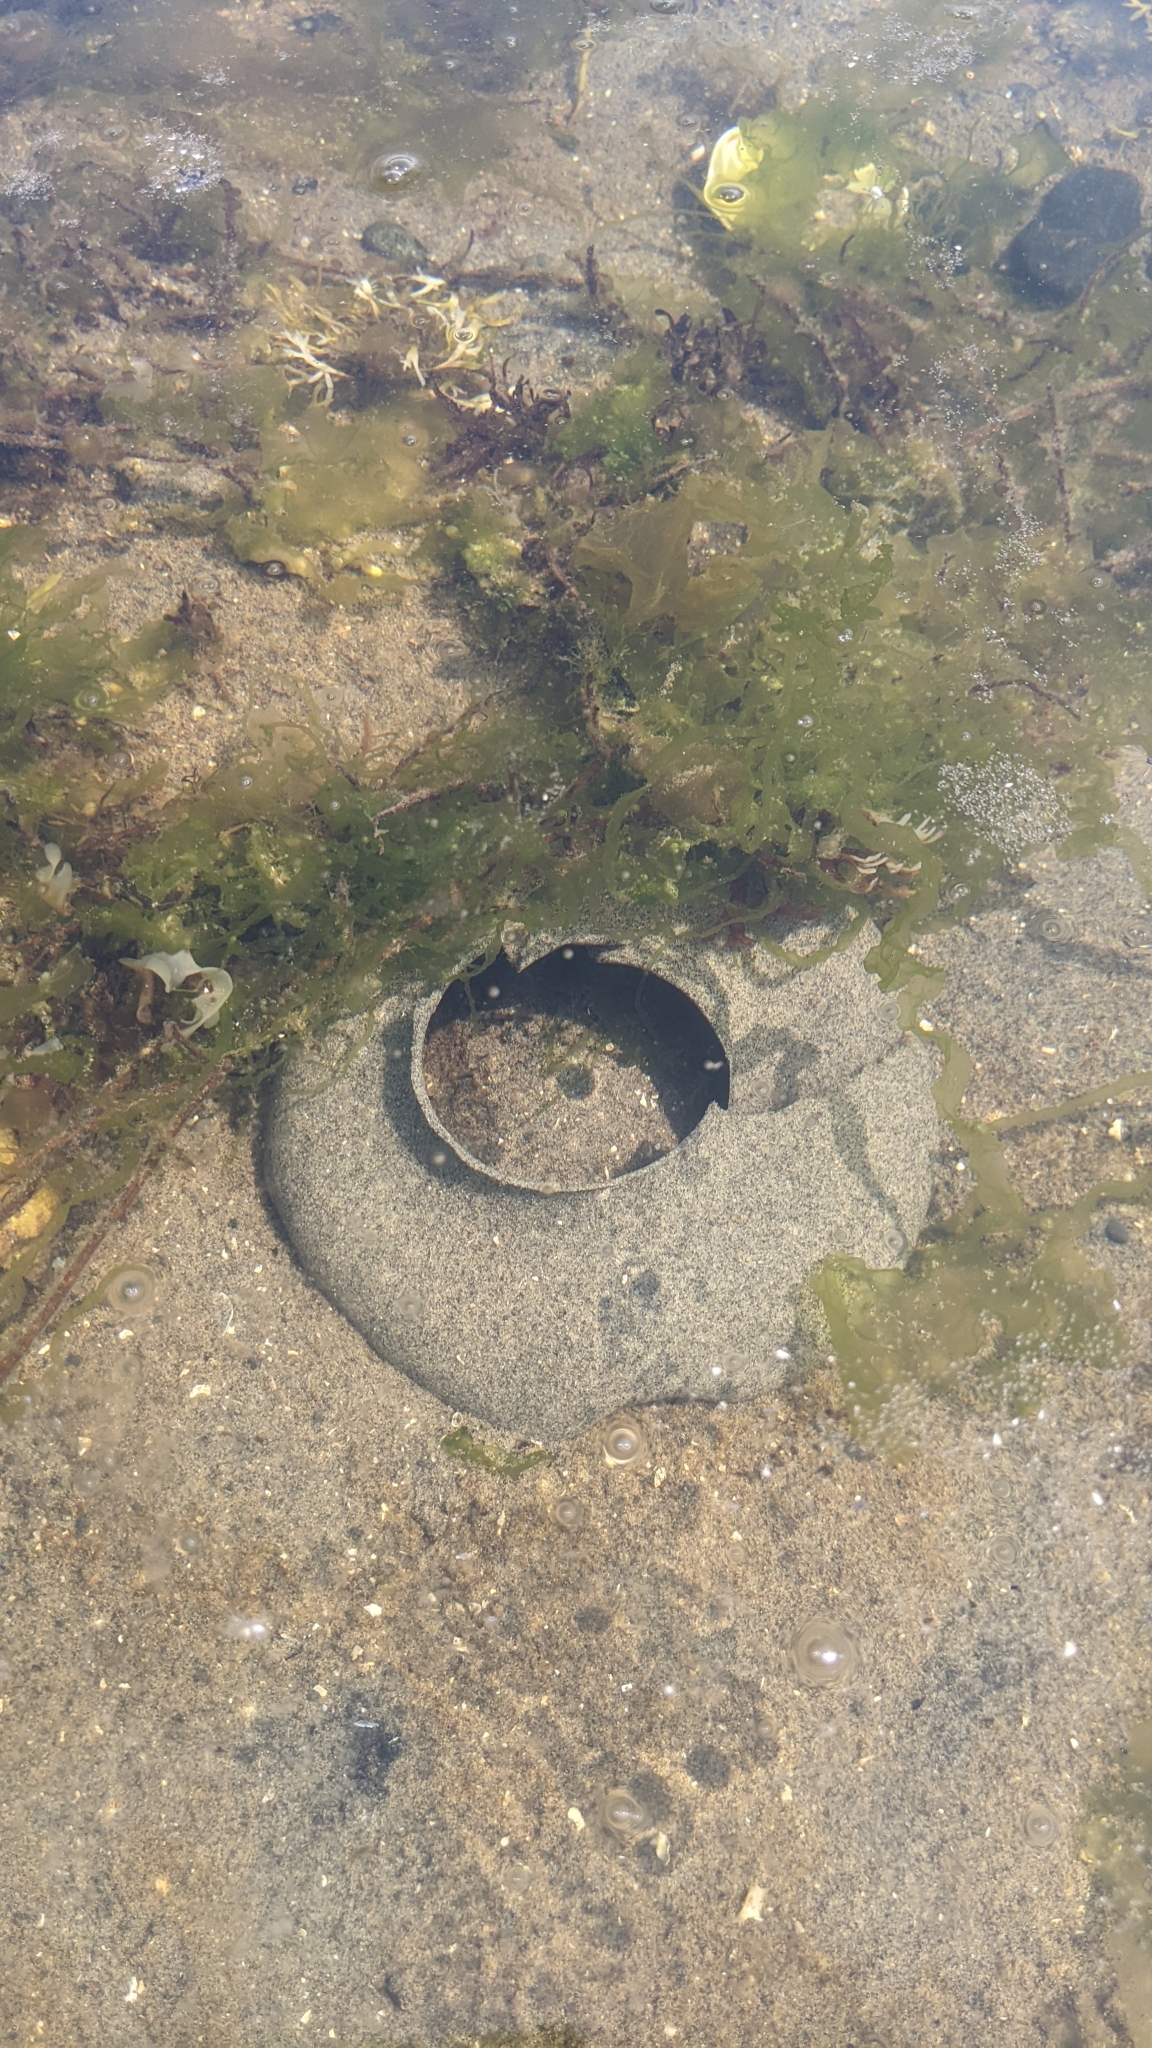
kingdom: Animalia
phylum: Mollusca
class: Gastropoda
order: Littorinimorpha
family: Naticidae
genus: Neverita
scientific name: Neverita lewisii
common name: Lewis' moonsnail
